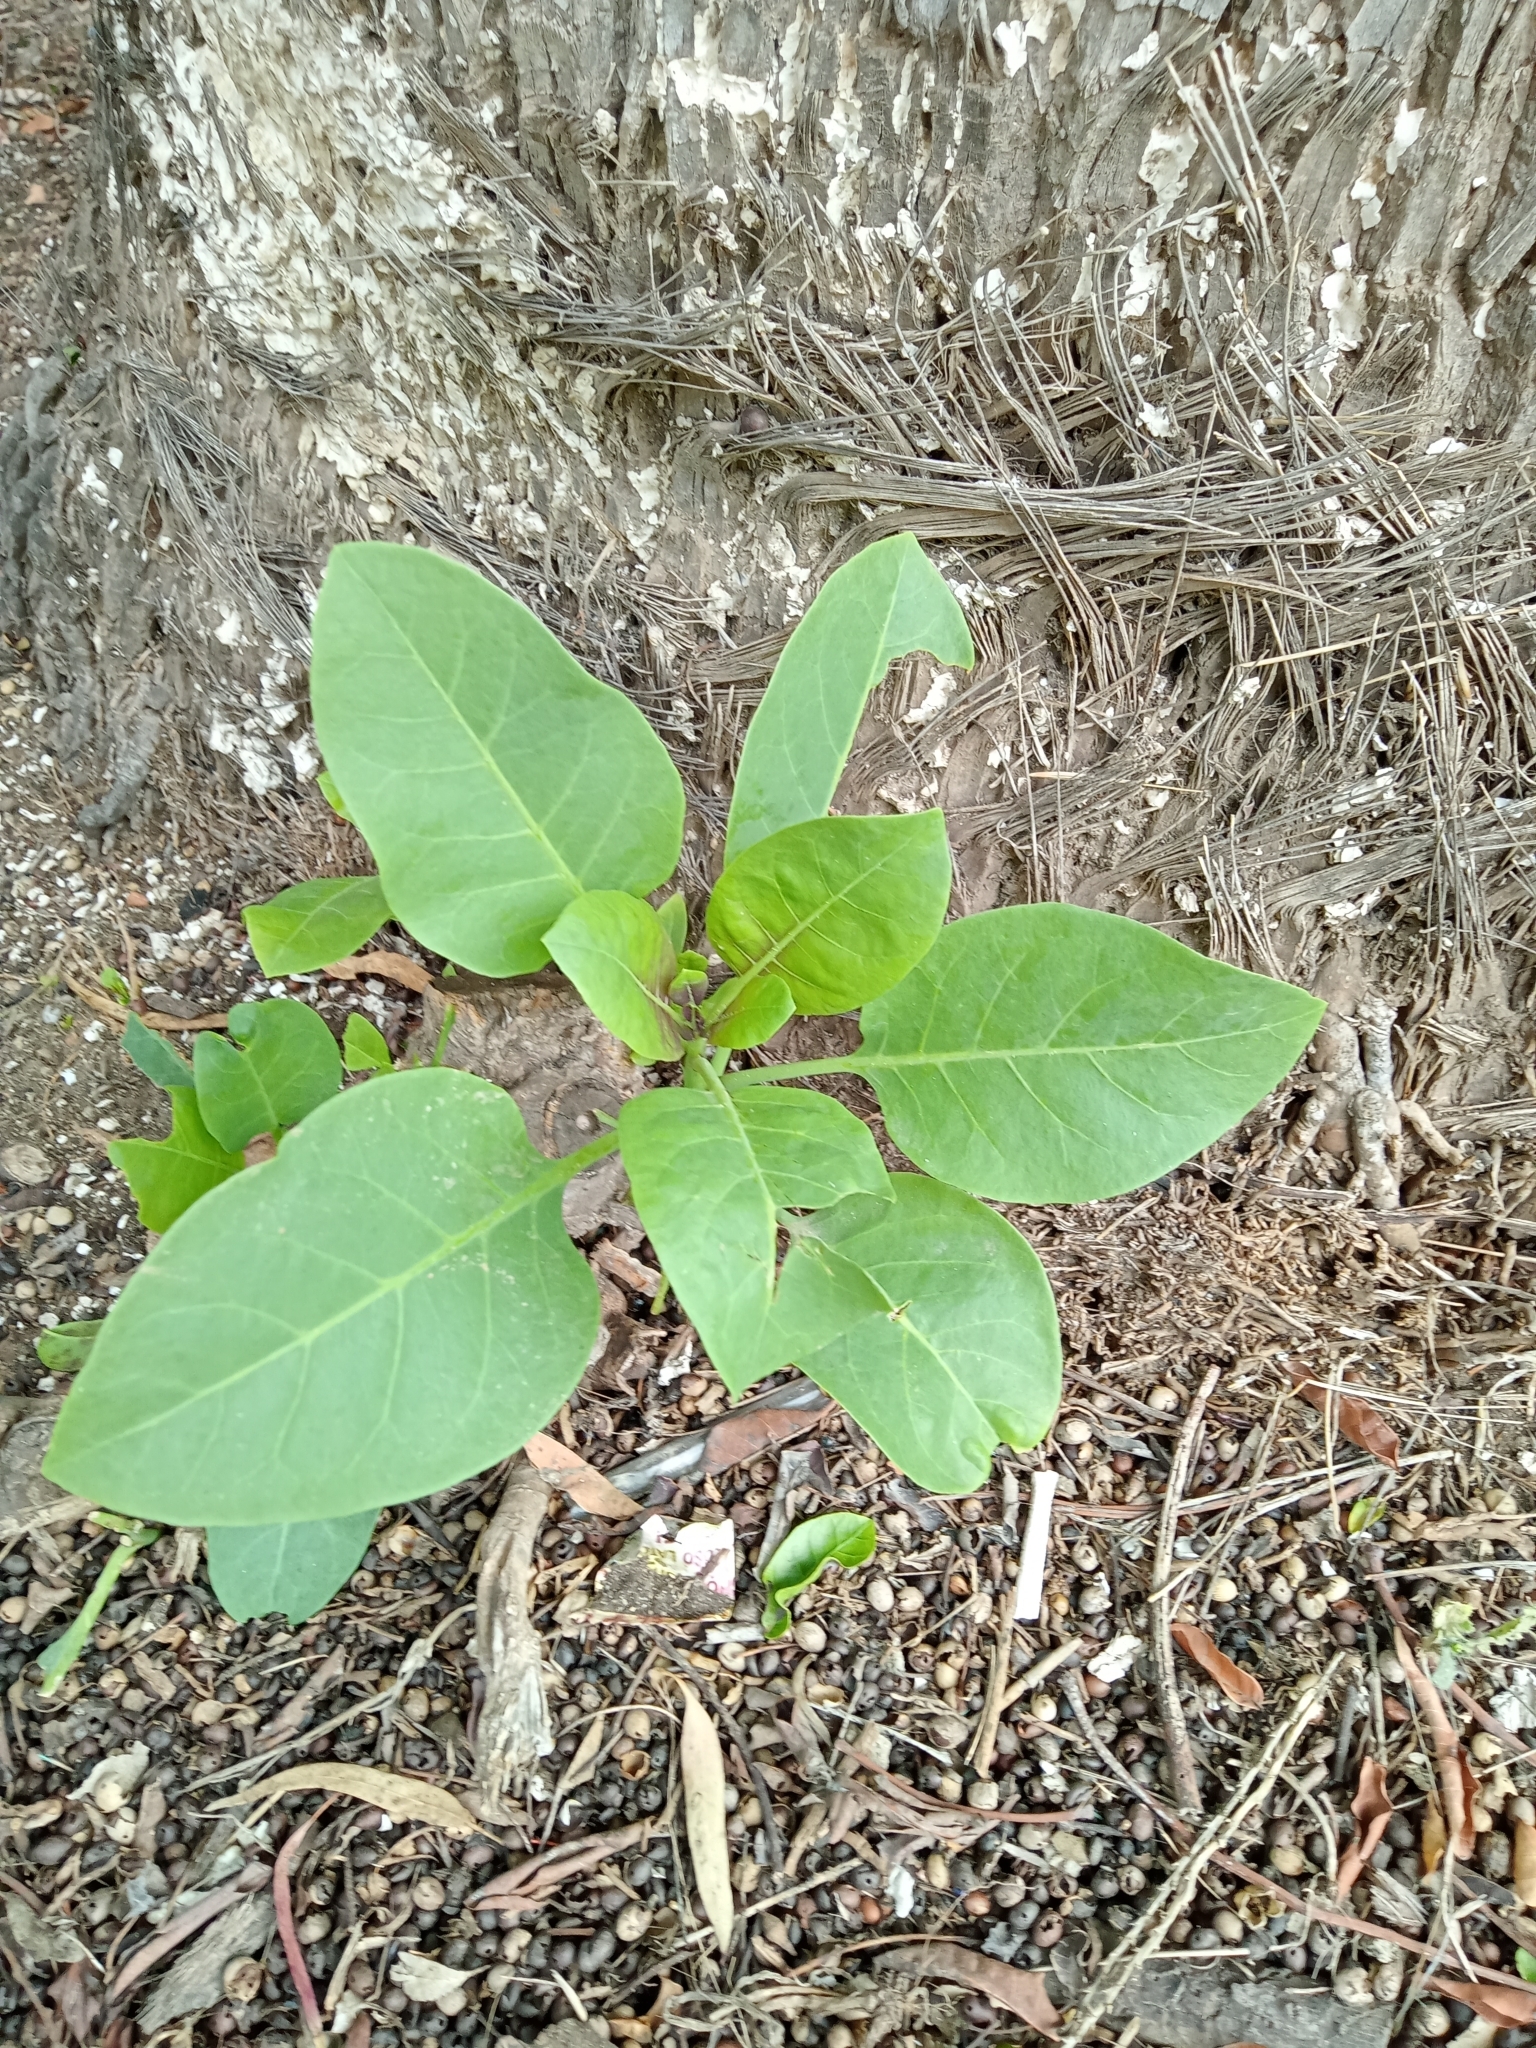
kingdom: Plantae
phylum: Tracheophyta
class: Magnoliopsida
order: Solanales
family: Solanaceae
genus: Nicotiana
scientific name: Nicotiana glauca
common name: Tree tobacco
